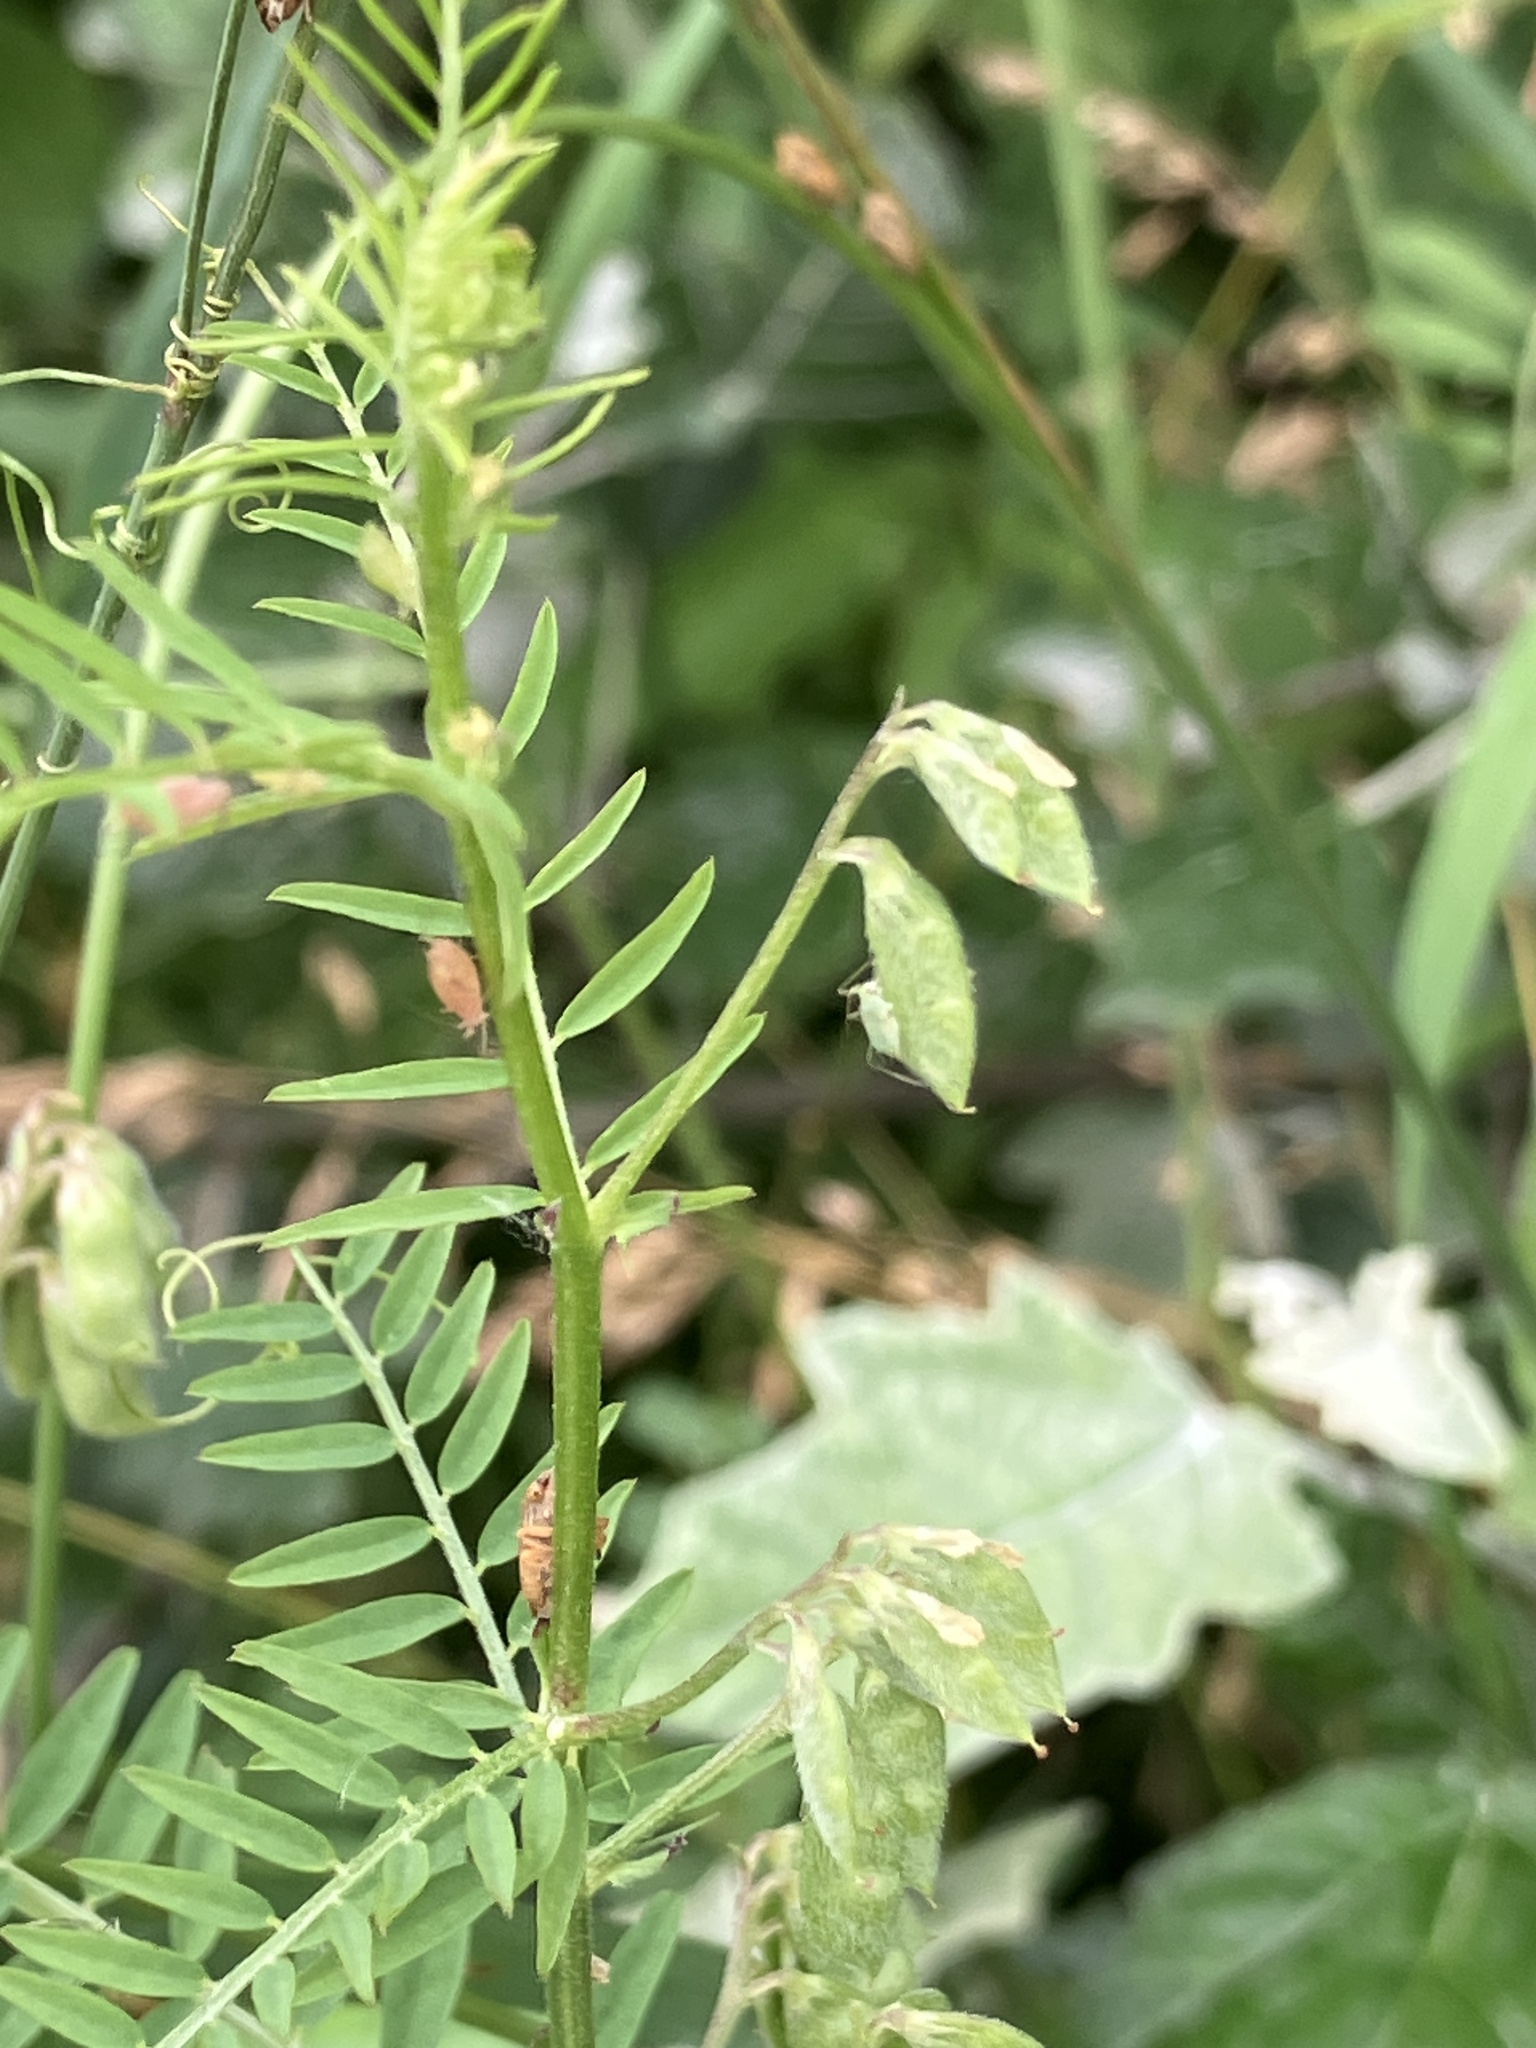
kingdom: Plantae
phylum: Tracheophyta
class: Magnoliopsida
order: Fabales
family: Fabaceae
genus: Vicia
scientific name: Vicia hirsuta
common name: Tiny vetch
